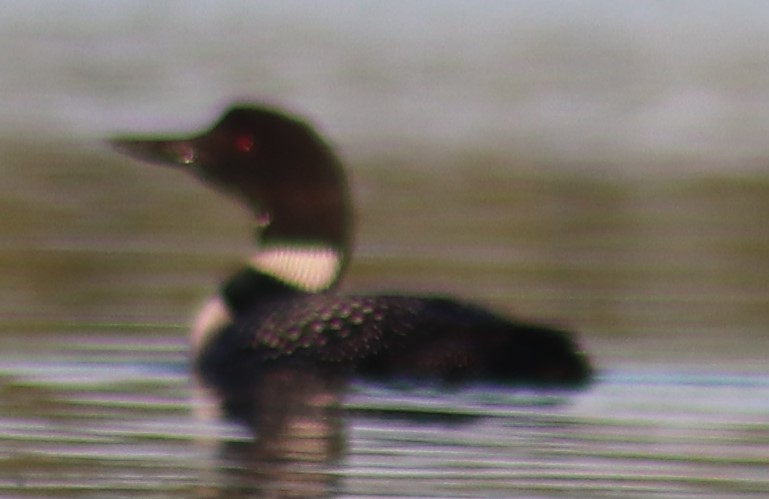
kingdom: Animalia
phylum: Chordata
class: Aves
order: Gaviiformes
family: Gaviidae
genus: Gavia
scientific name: Gavia immer
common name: Common loon
